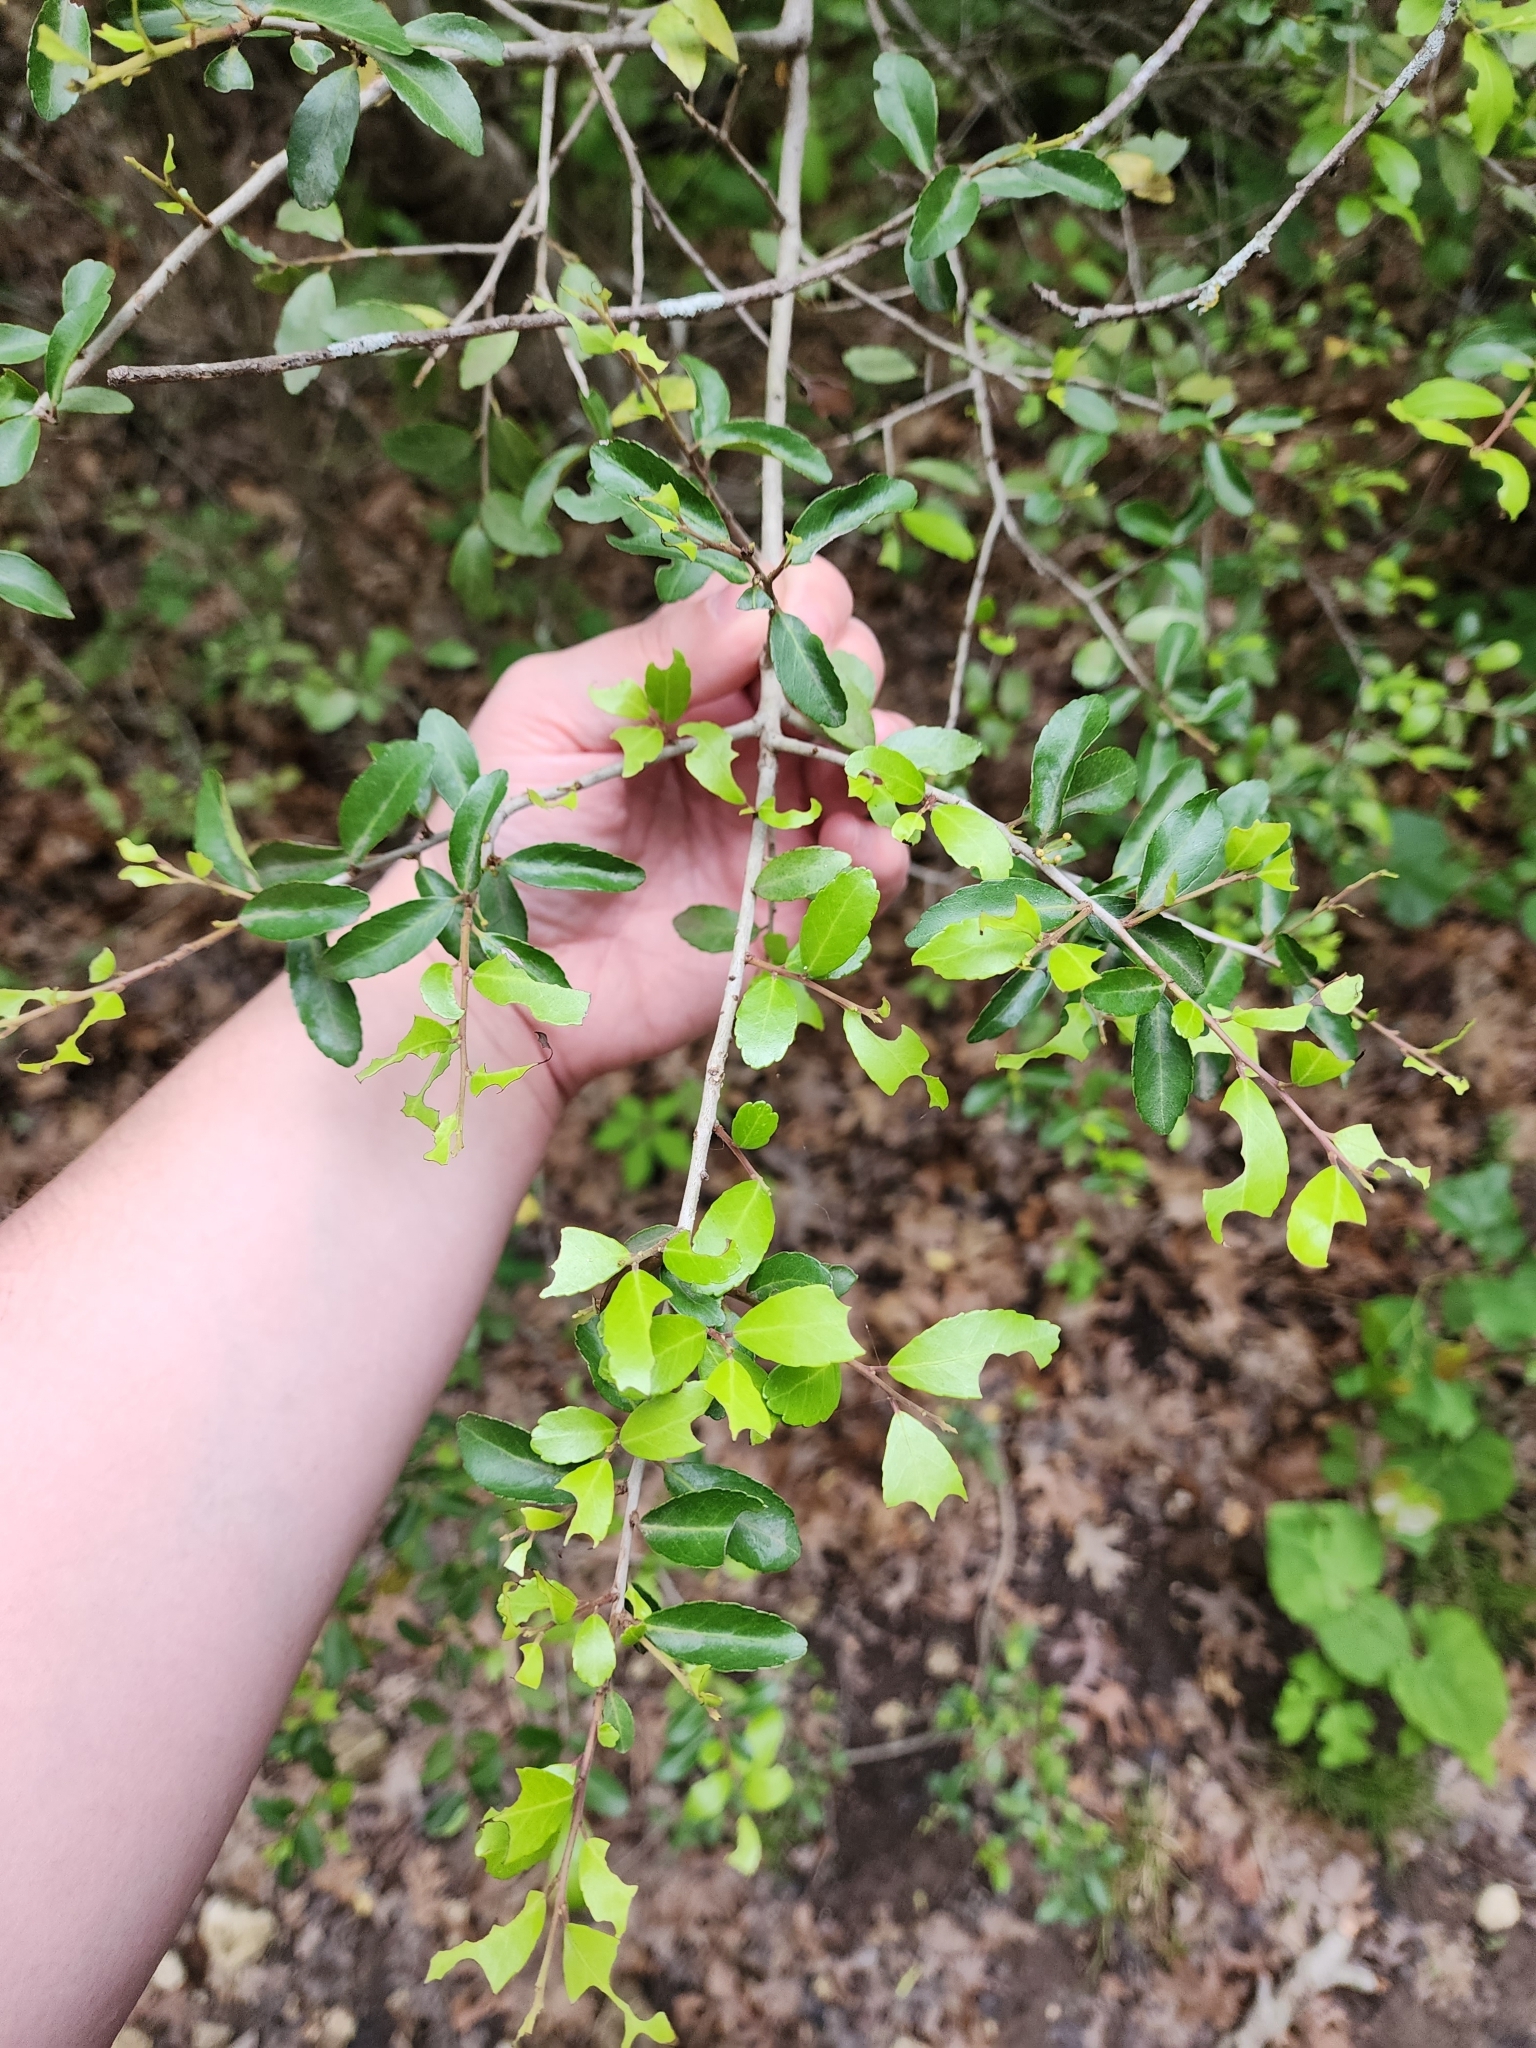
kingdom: Plantae
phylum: Tracheophyta
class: Magnoliopsida
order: Aquifoliales
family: Aquifoliaceae
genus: Ilex
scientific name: Ilex vomitoria
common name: Yaupon holly
